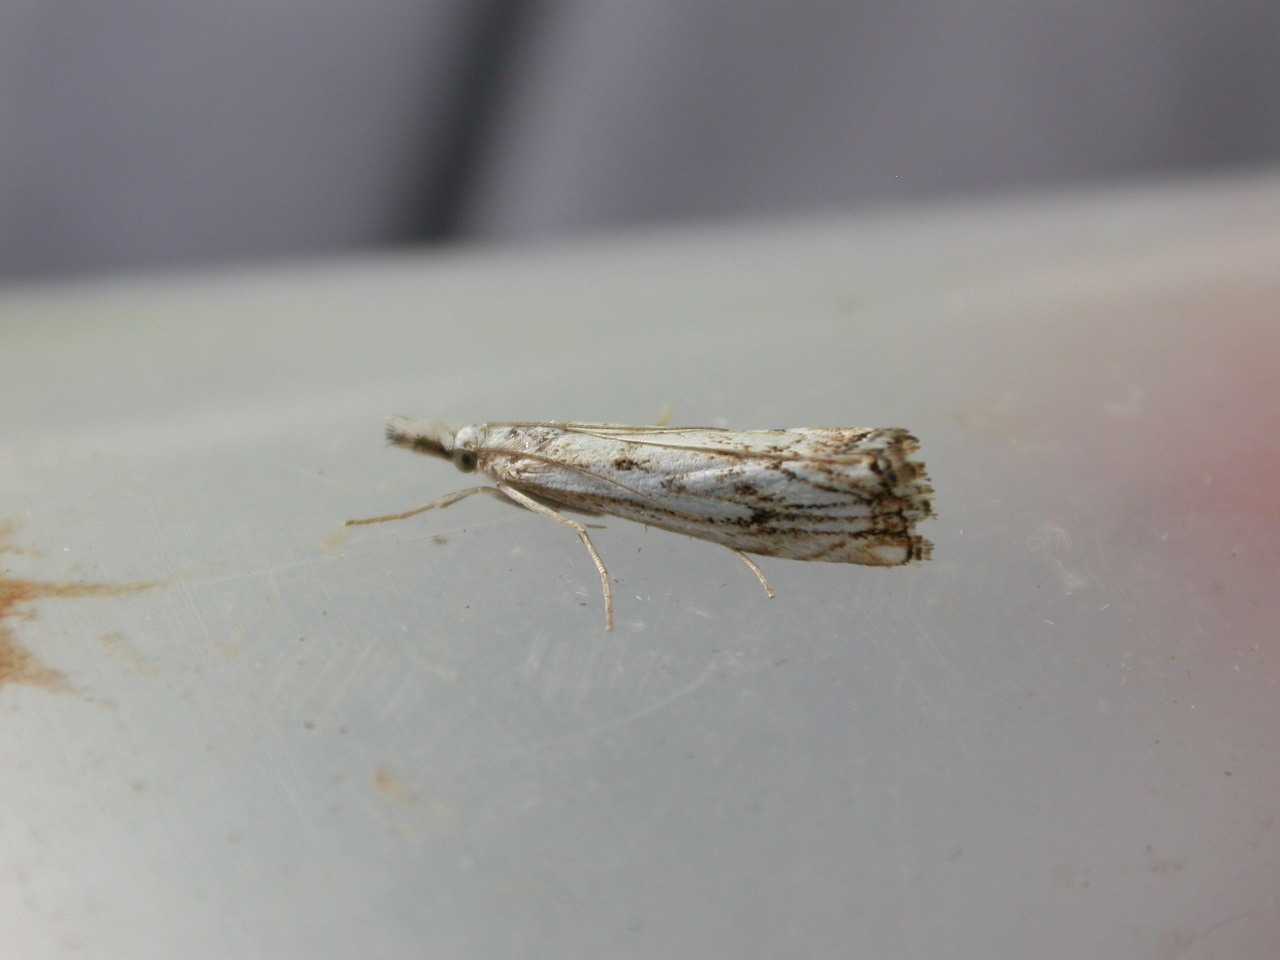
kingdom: Animalia
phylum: Arthropoda
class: Insecta
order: Lepidoptera
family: Crambidae
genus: Catoptria
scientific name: Catoptria falsella
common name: Chequered grass-veneer
